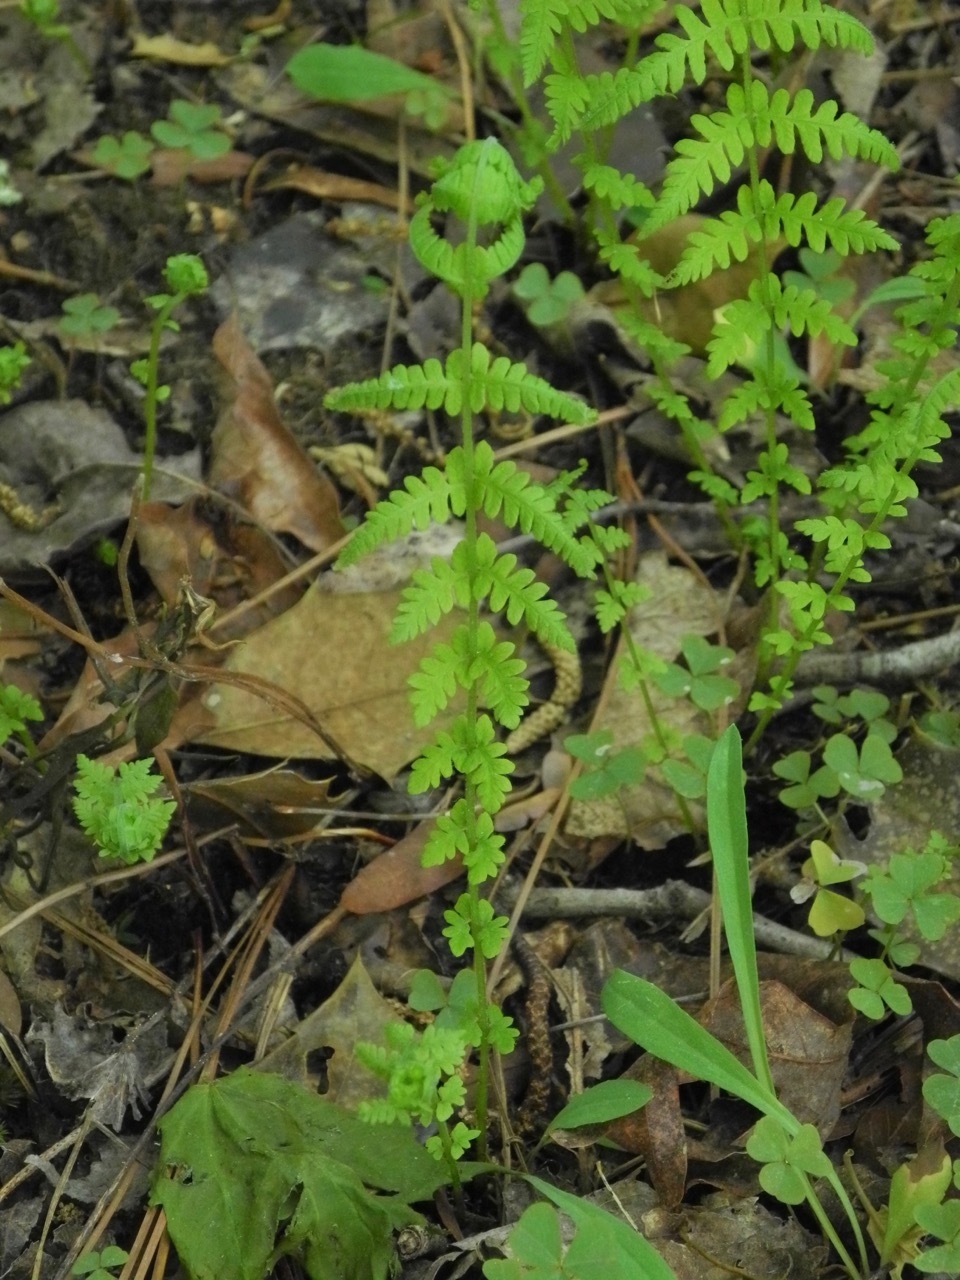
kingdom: Plantae
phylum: Tracheophyta
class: Polypodiopsida
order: Polypodiales
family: Thelypteridaceae
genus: Amauropelta
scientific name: Amauropelta noveboracensis
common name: New york fern
